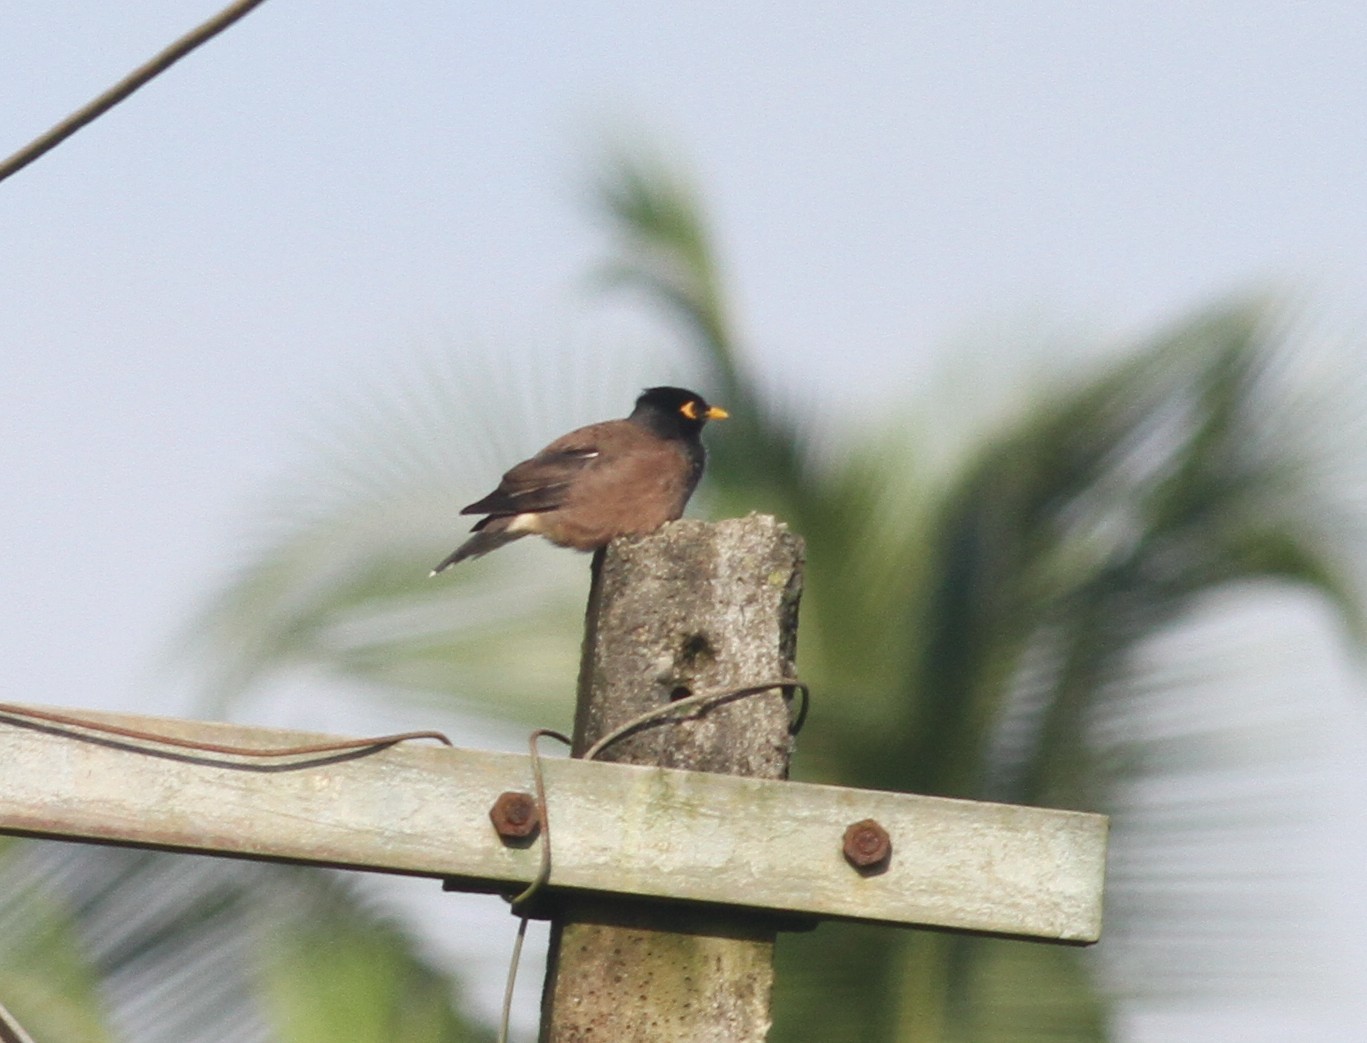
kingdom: Animalia
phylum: Chordata
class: Aves
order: Passeriformes
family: Sturnidae
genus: Acridotheres
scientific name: Acridotheres tristis
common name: Common myna
